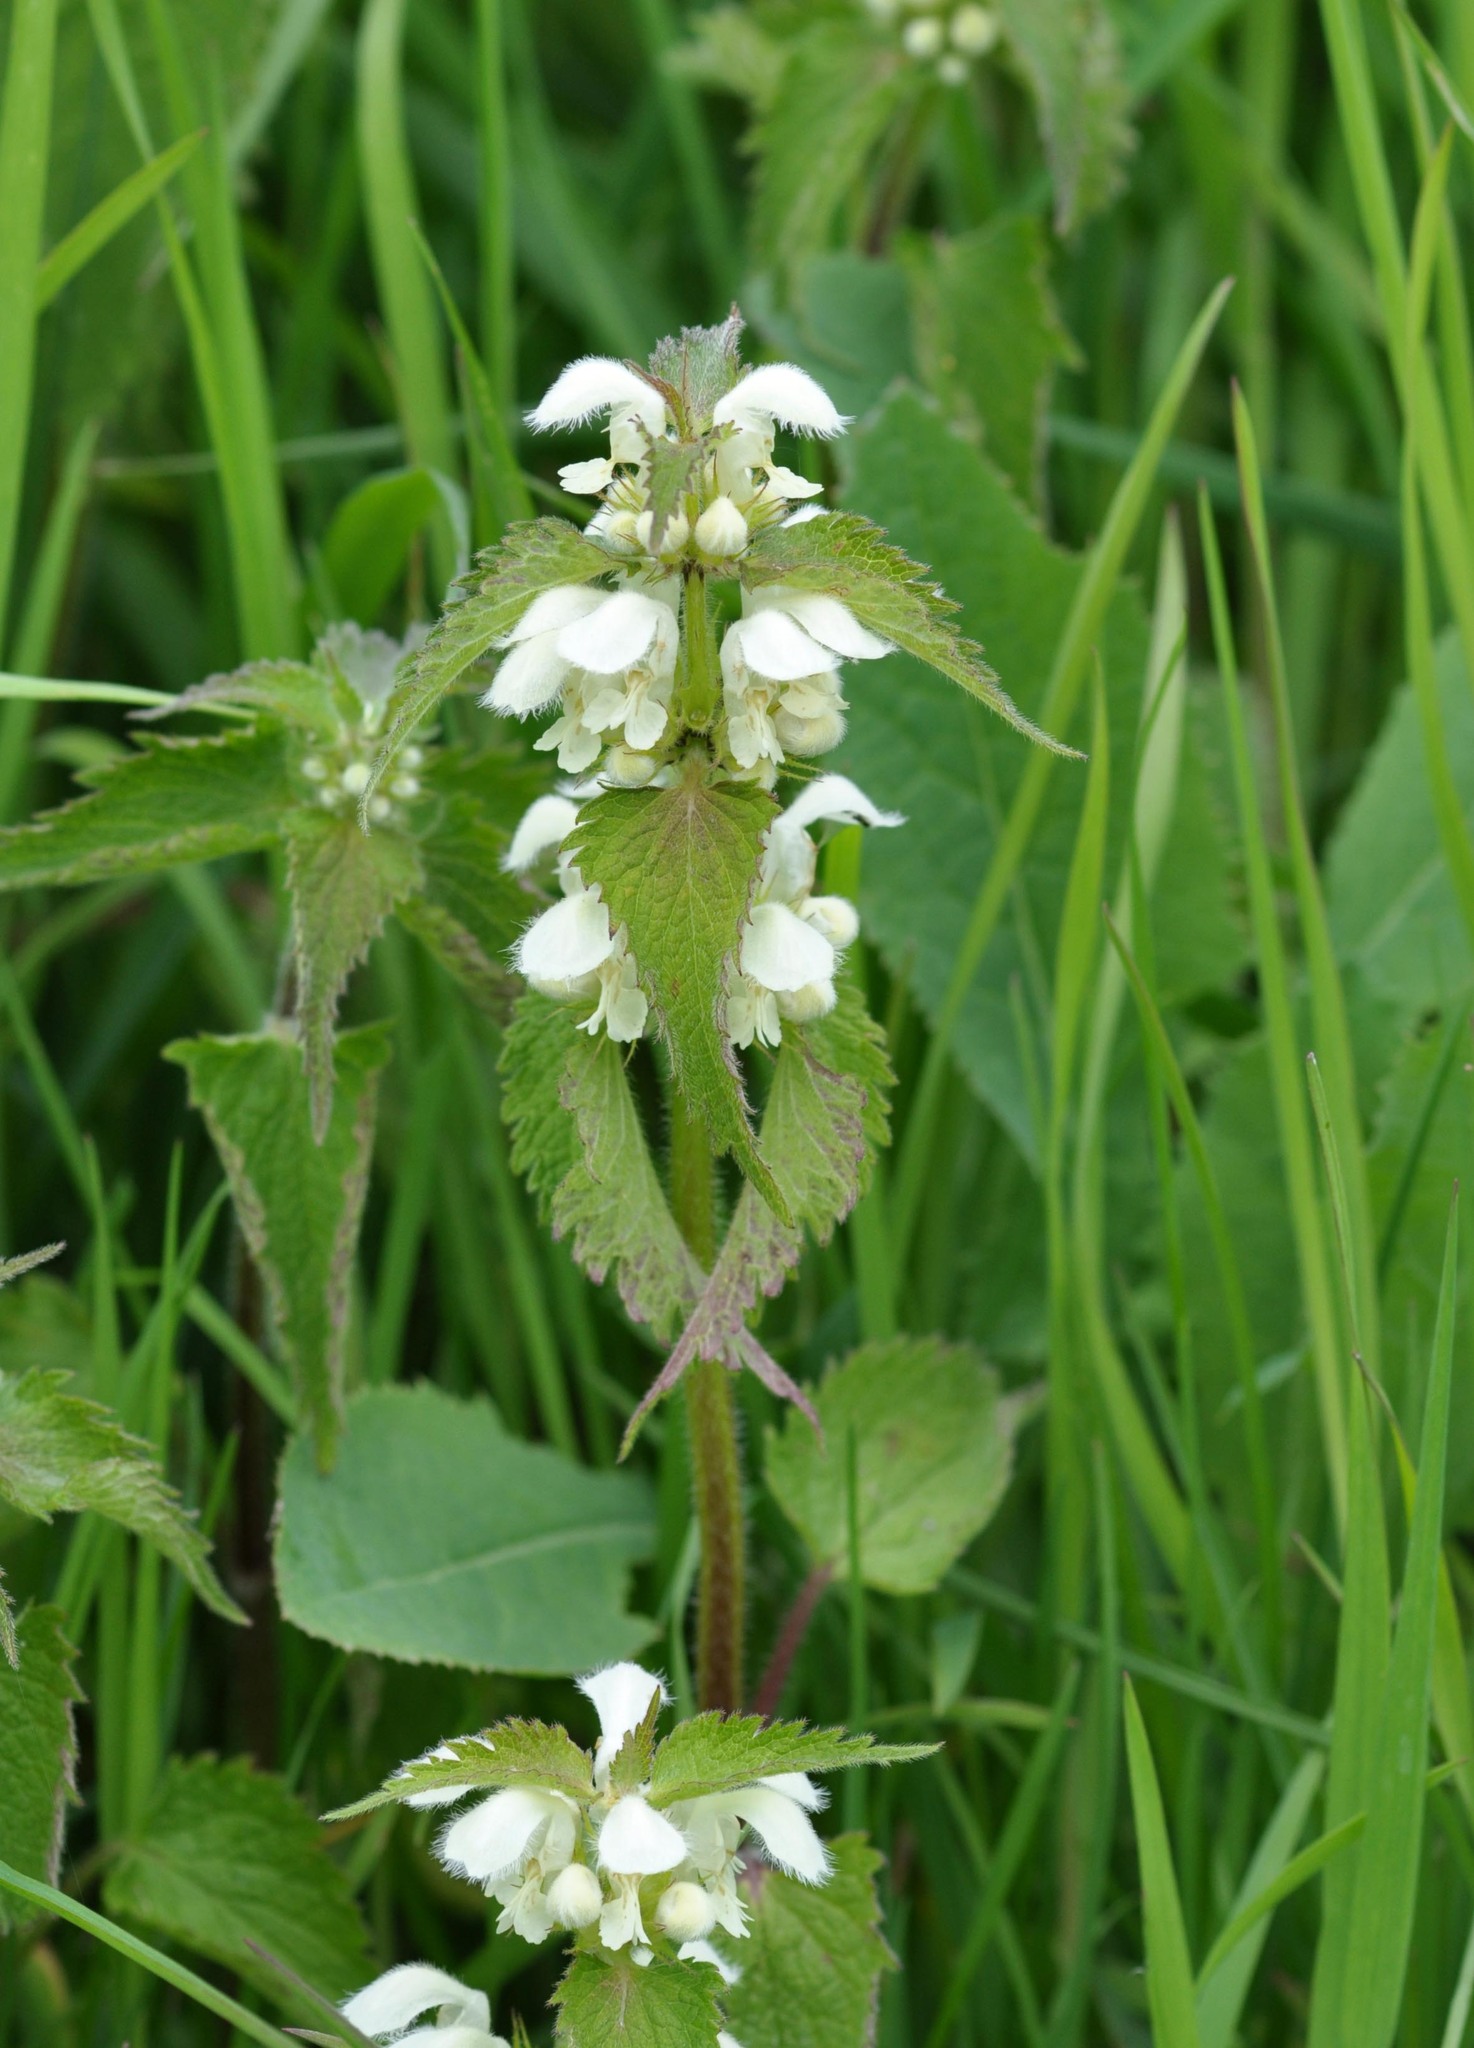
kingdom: Plantae
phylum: Tracheophyta
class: Magnoliopsida
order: Lamiales
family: Lamiaceae
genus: Lamium
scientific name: Lamium album
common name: White dead-nettle
